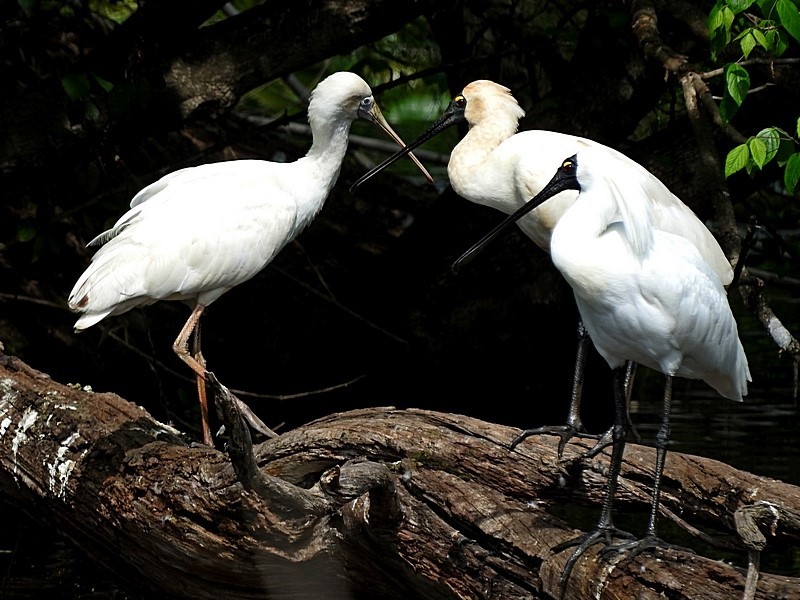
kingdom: Animalia
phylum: Chordata
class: Aves
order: Pelecaniformes
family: Threskiornithidae
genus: Platalea
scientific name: Platalea flavipes
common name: Yellow-billed spoonbill
